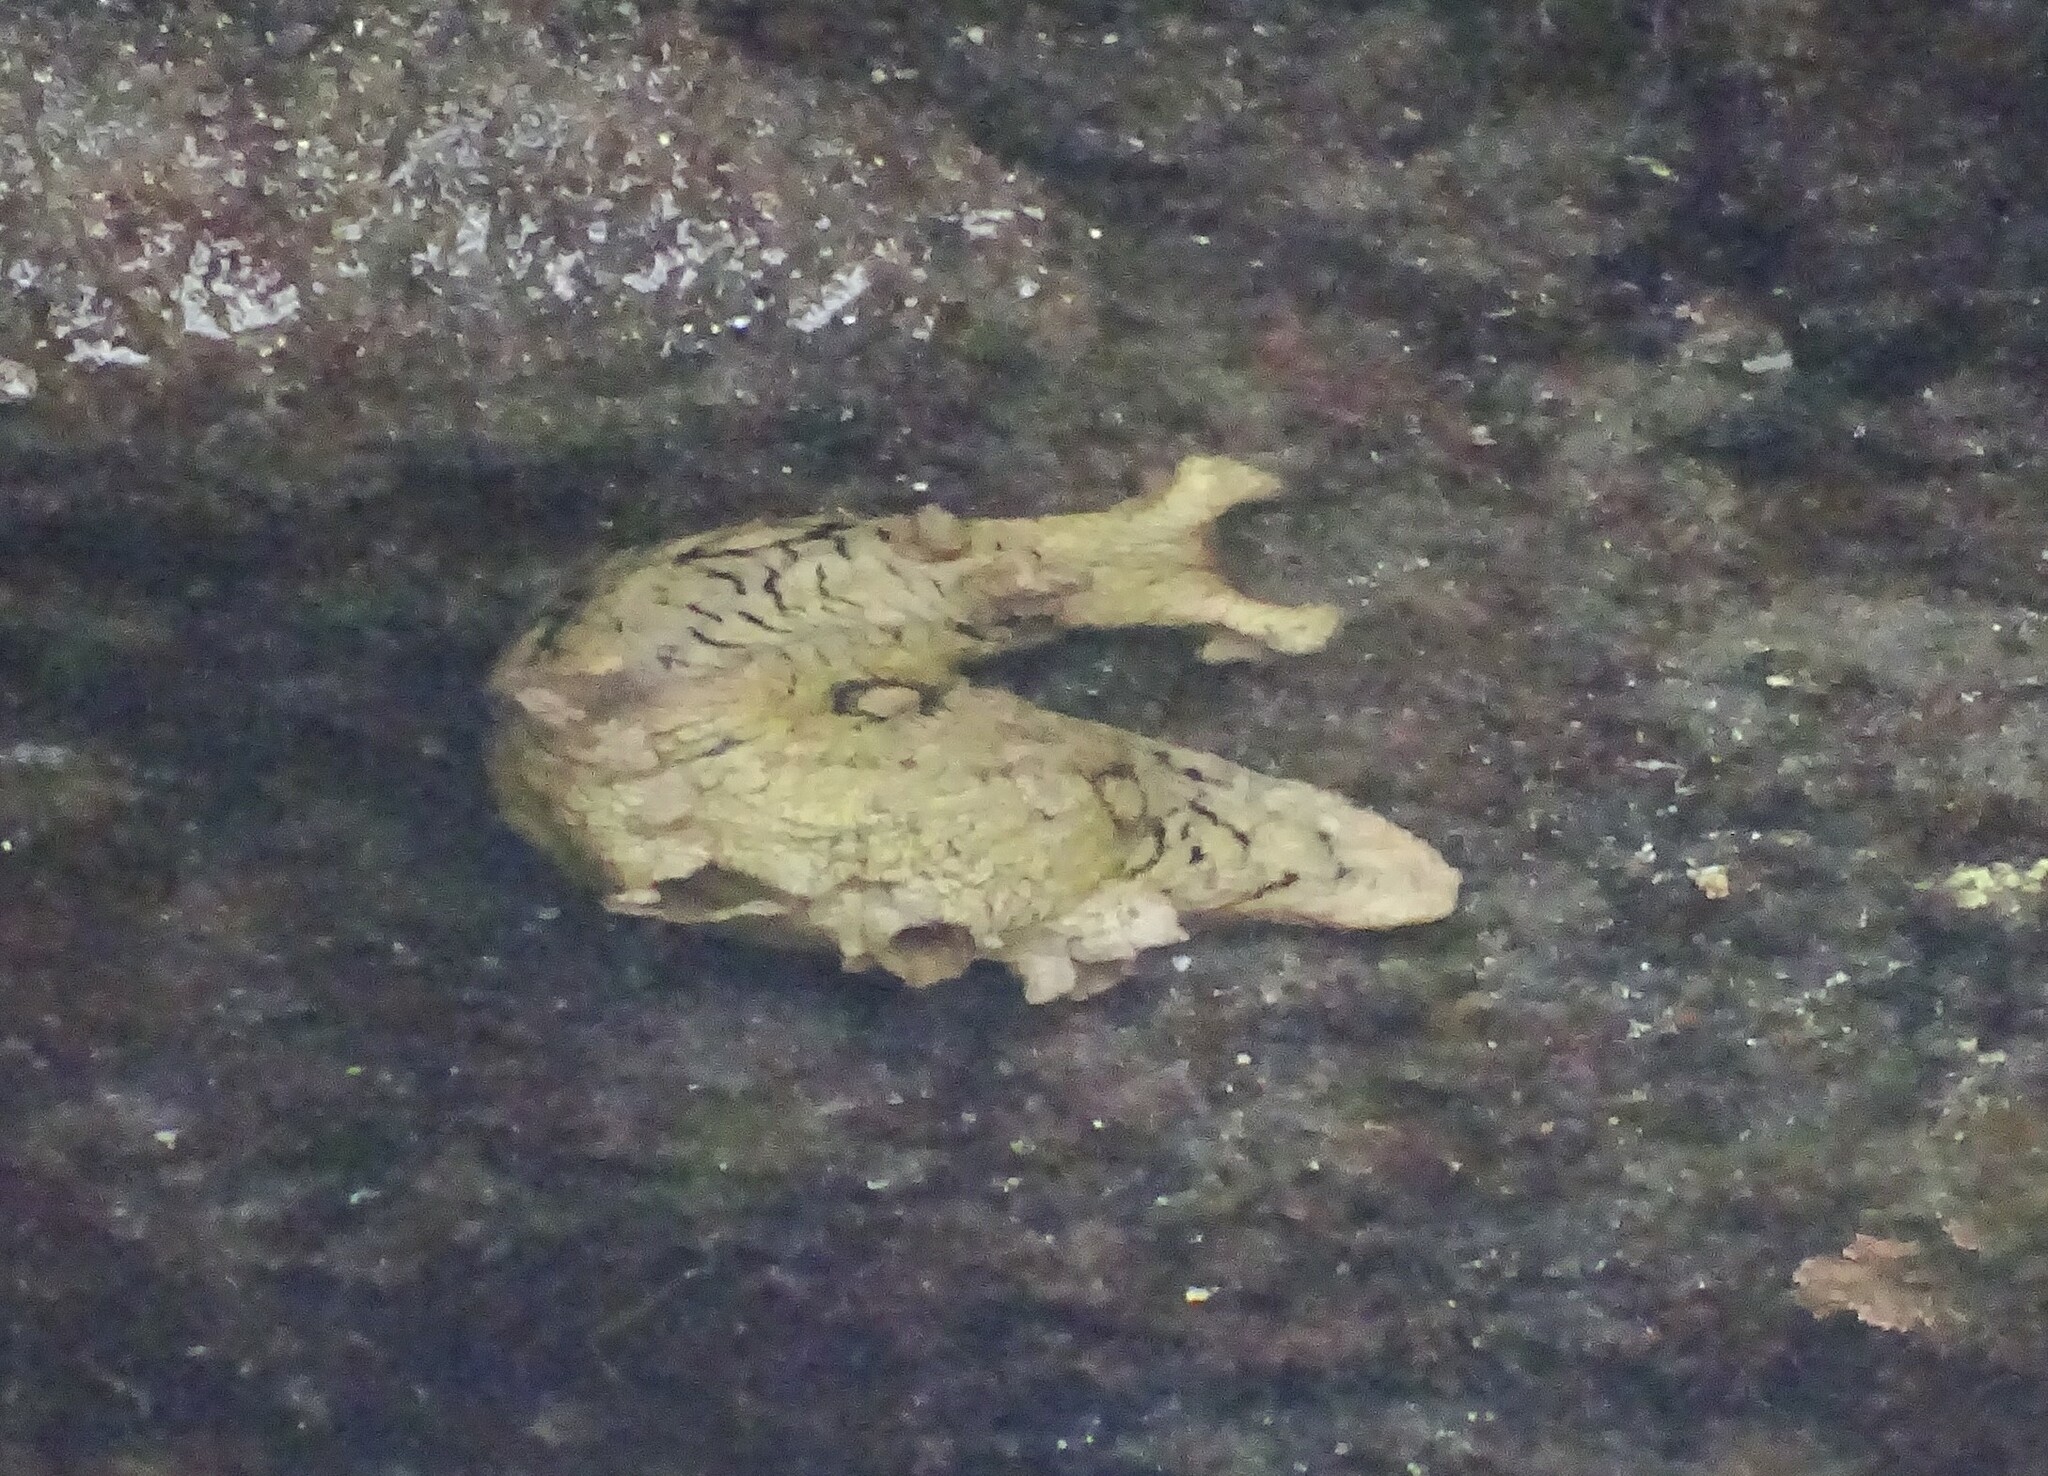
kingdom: Animalia
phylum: Mollusca
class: Gastropoda
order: Aplysiida
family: Aplysiidae
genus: Aplysia
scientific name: Aplysia dactylomela
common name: Large-spotted sea hare
